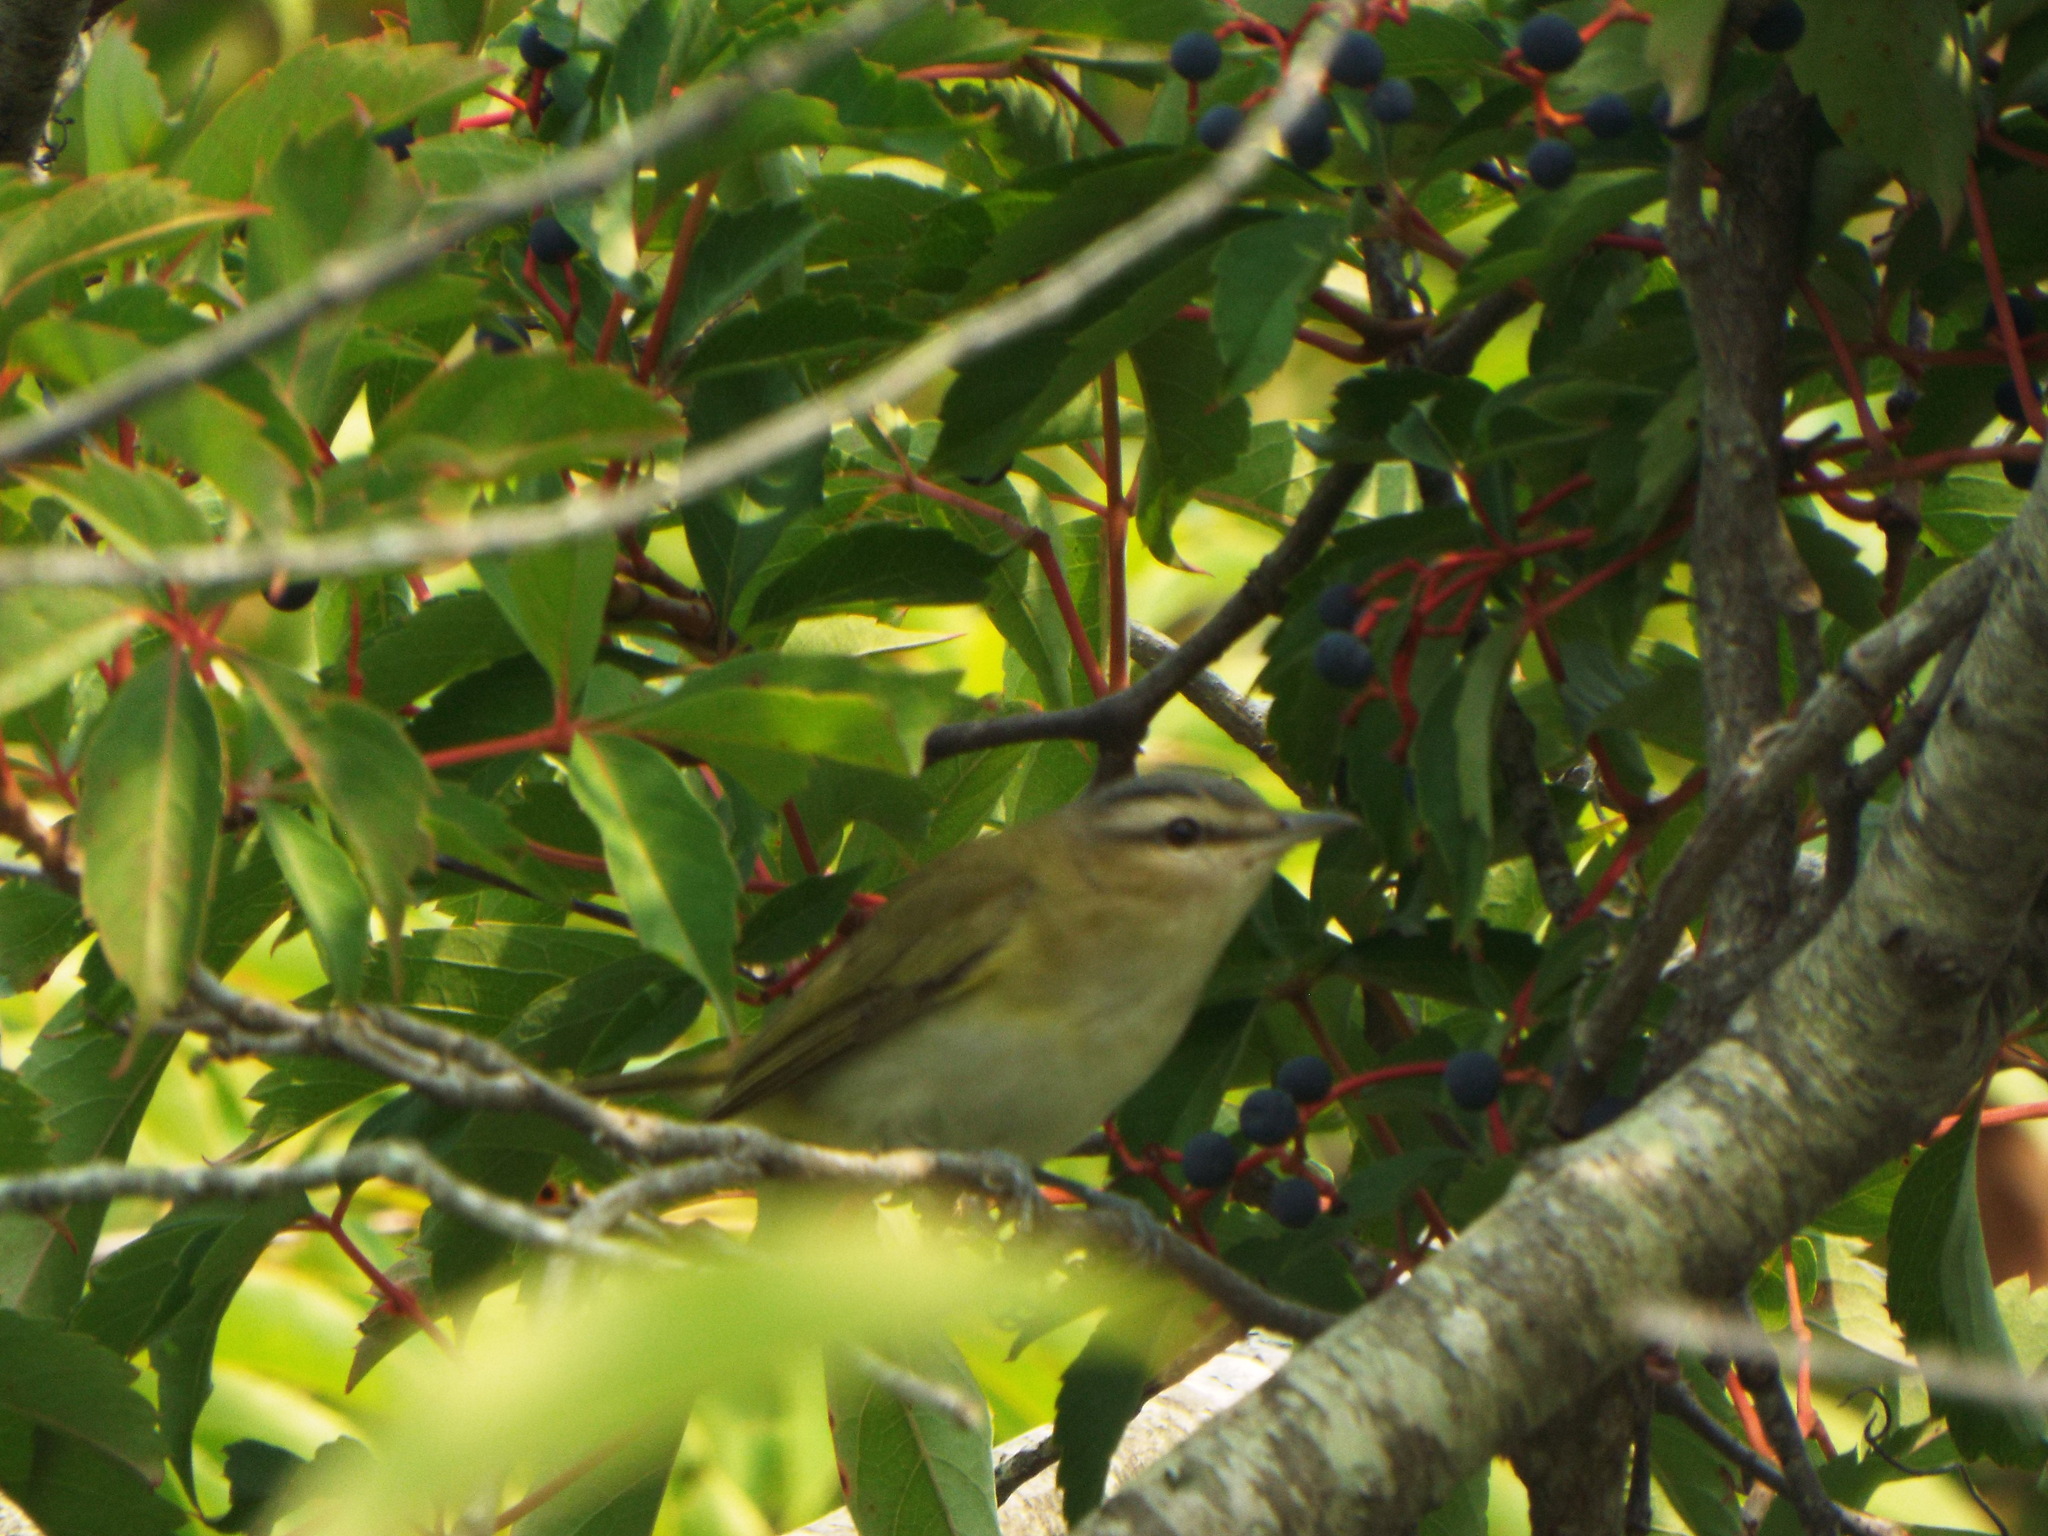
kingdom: Animalia
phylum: Chordata
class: Aves
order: Passeriformes
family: Vireonidae
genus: Vireo
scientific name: Vireo olivaceus
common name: Red-eyed vireo
